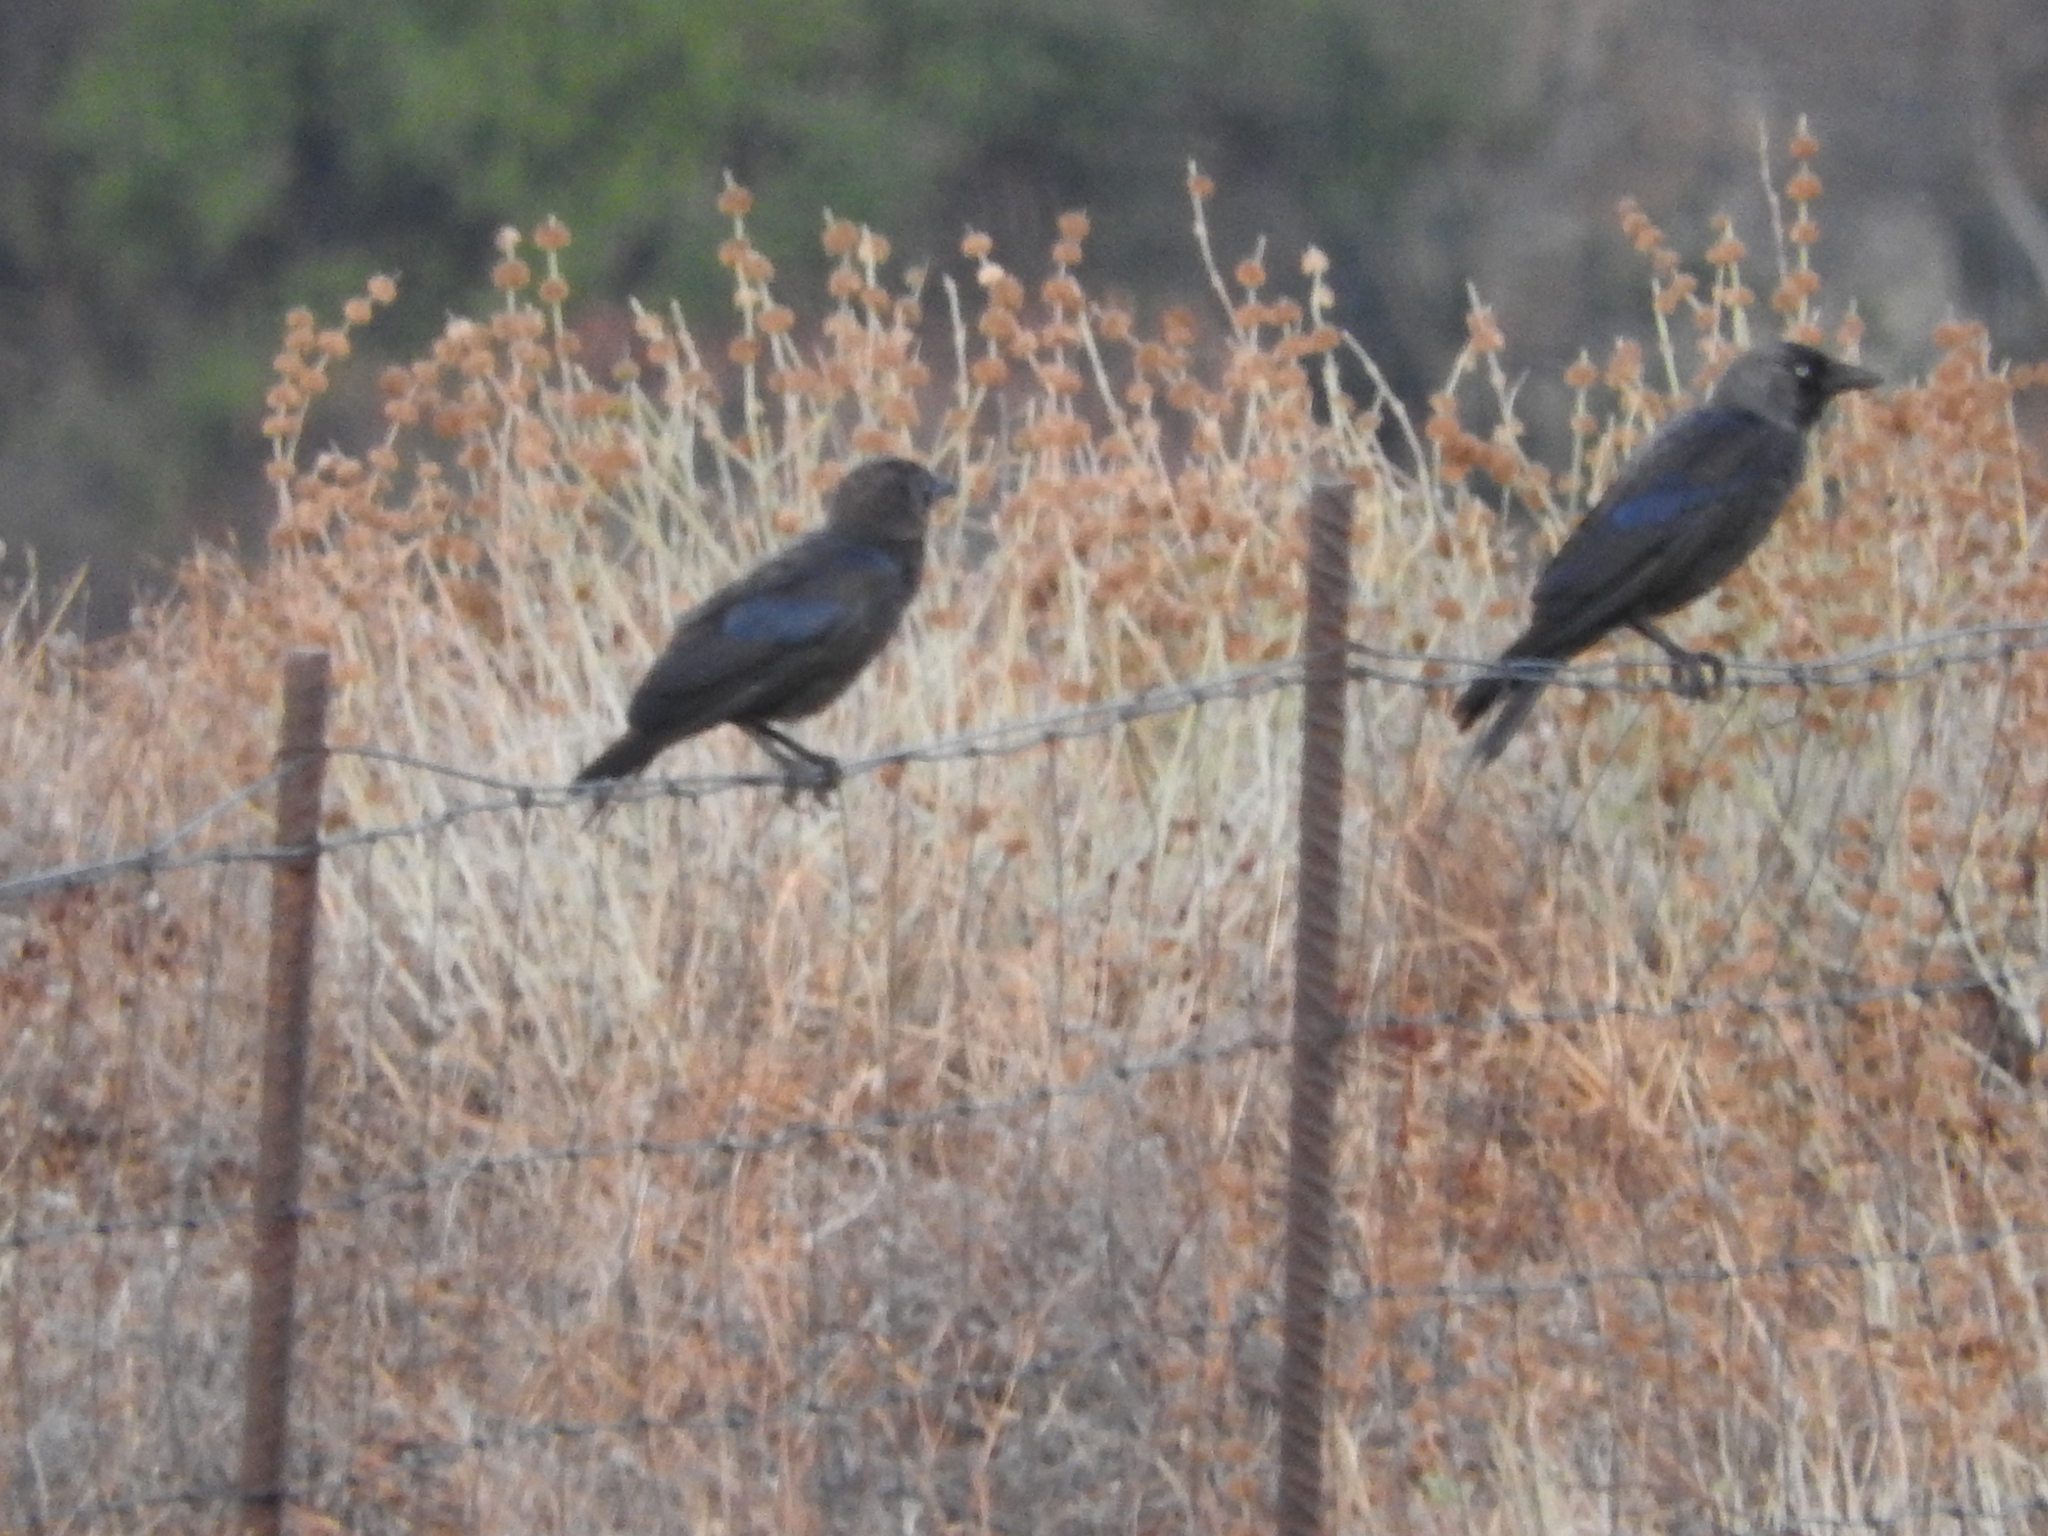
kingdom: Animalia
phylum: Chordata
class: Aves
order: Passeriformes
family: Corvidae
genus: Coloeus
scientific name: Coloeus monedula
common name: Western jackdaw
